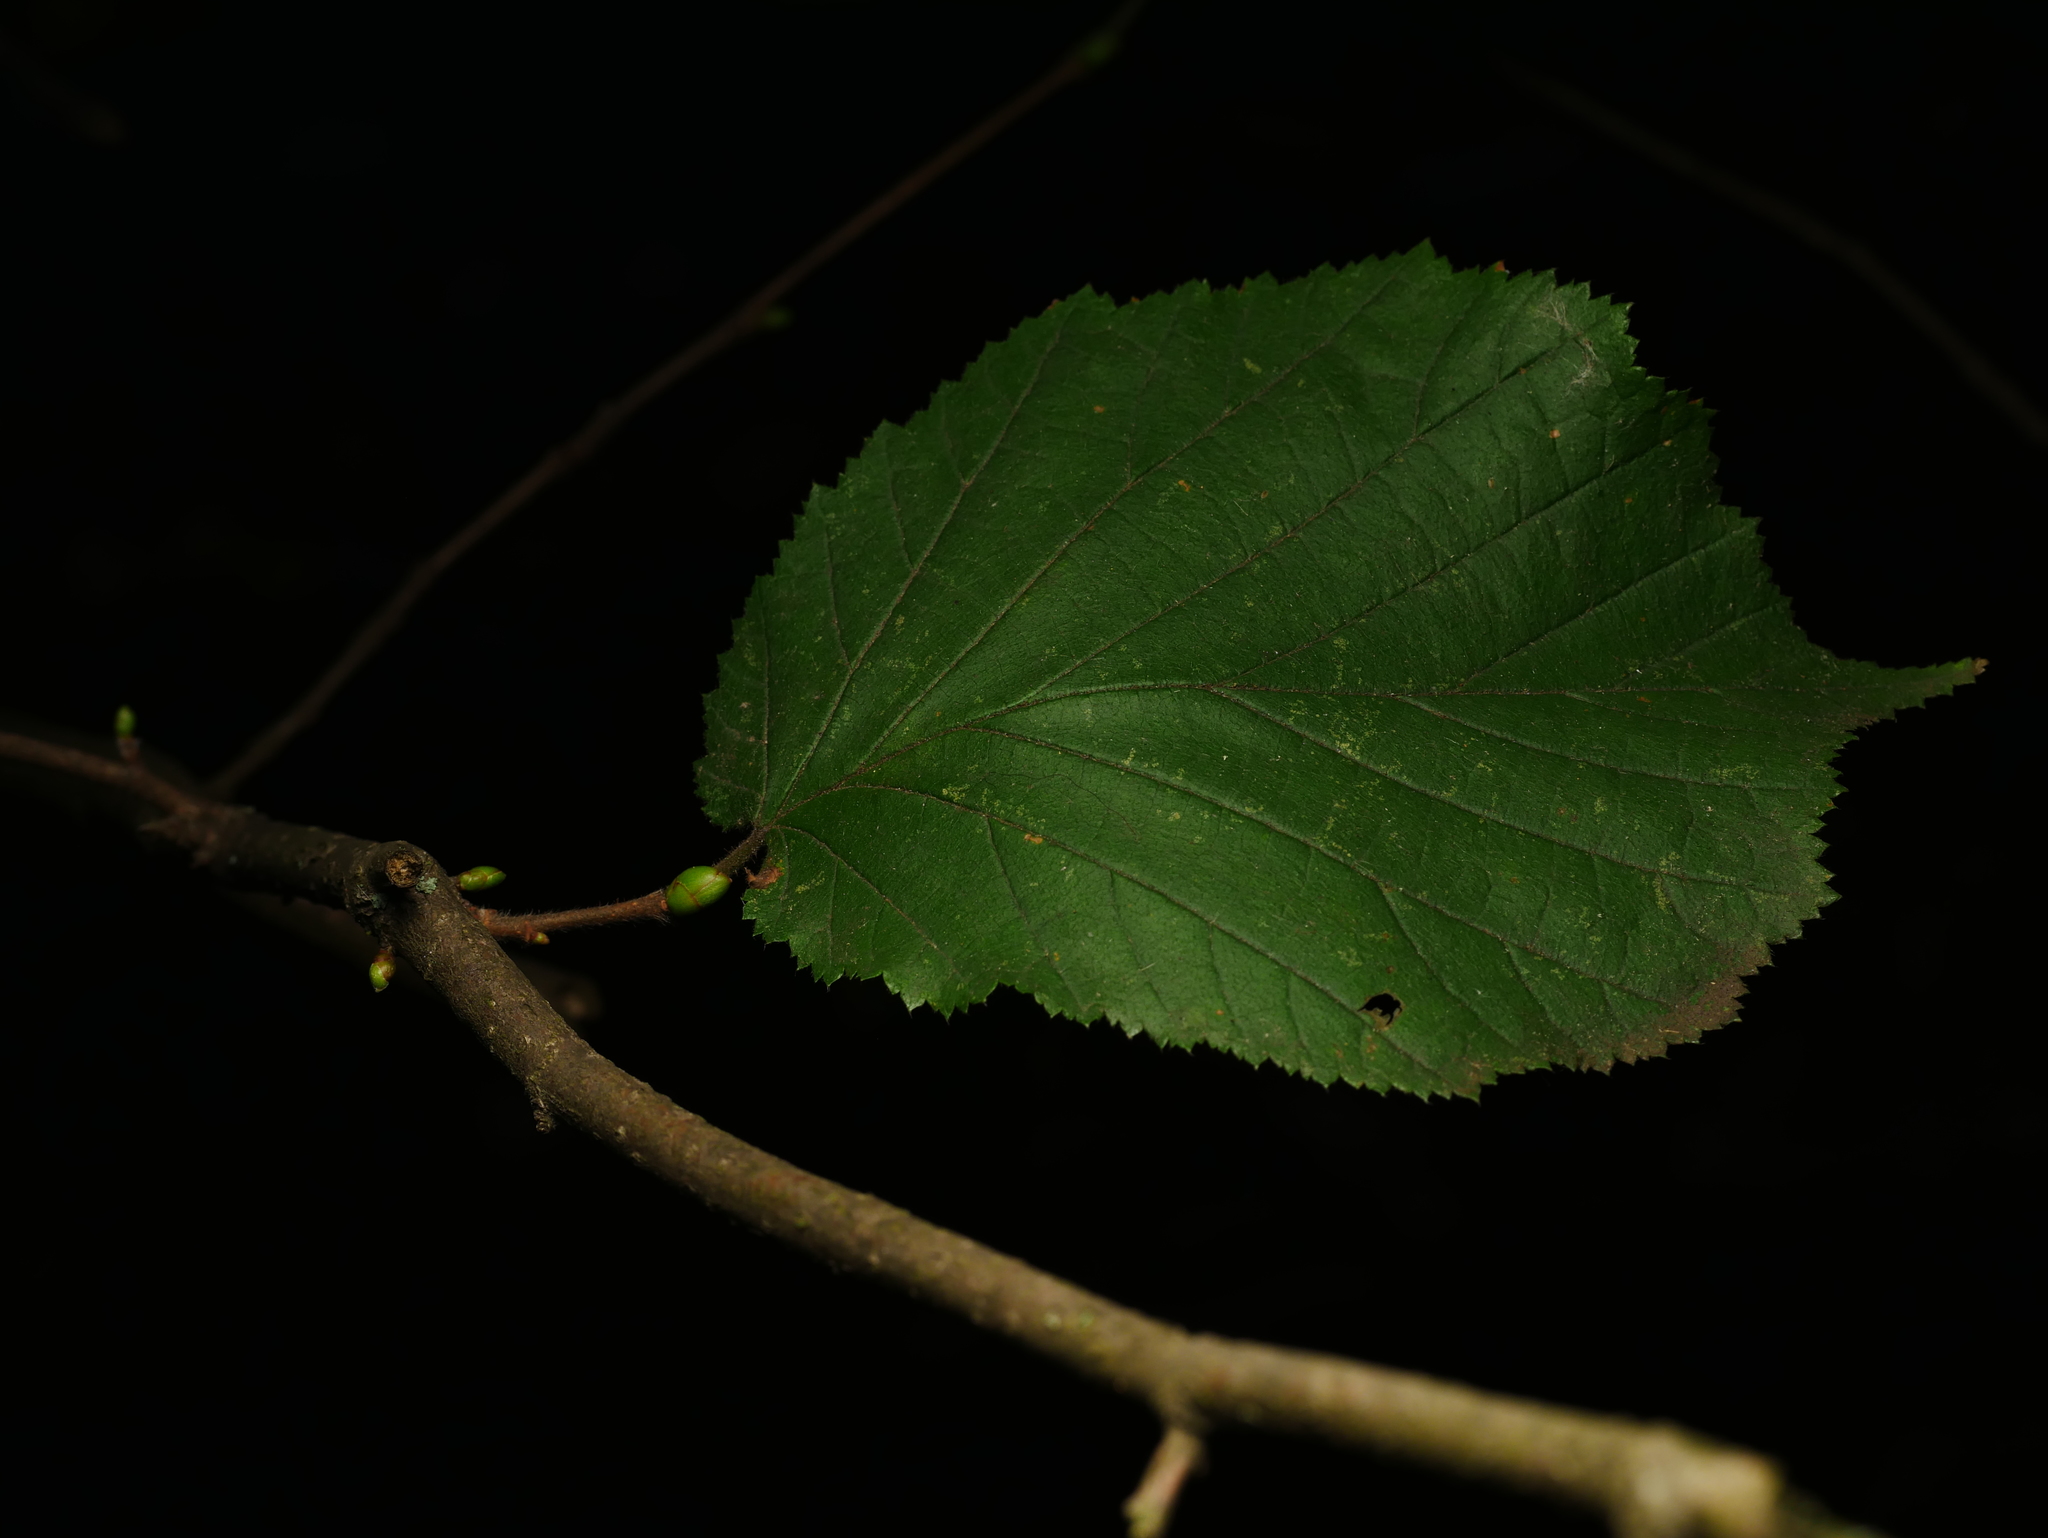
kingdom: Plantae
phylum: Tracheophyta
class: Magnoliopsida
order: Fagales
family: Betulaceae
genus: Corylus
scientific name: Corylus avellana
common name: European hazel
